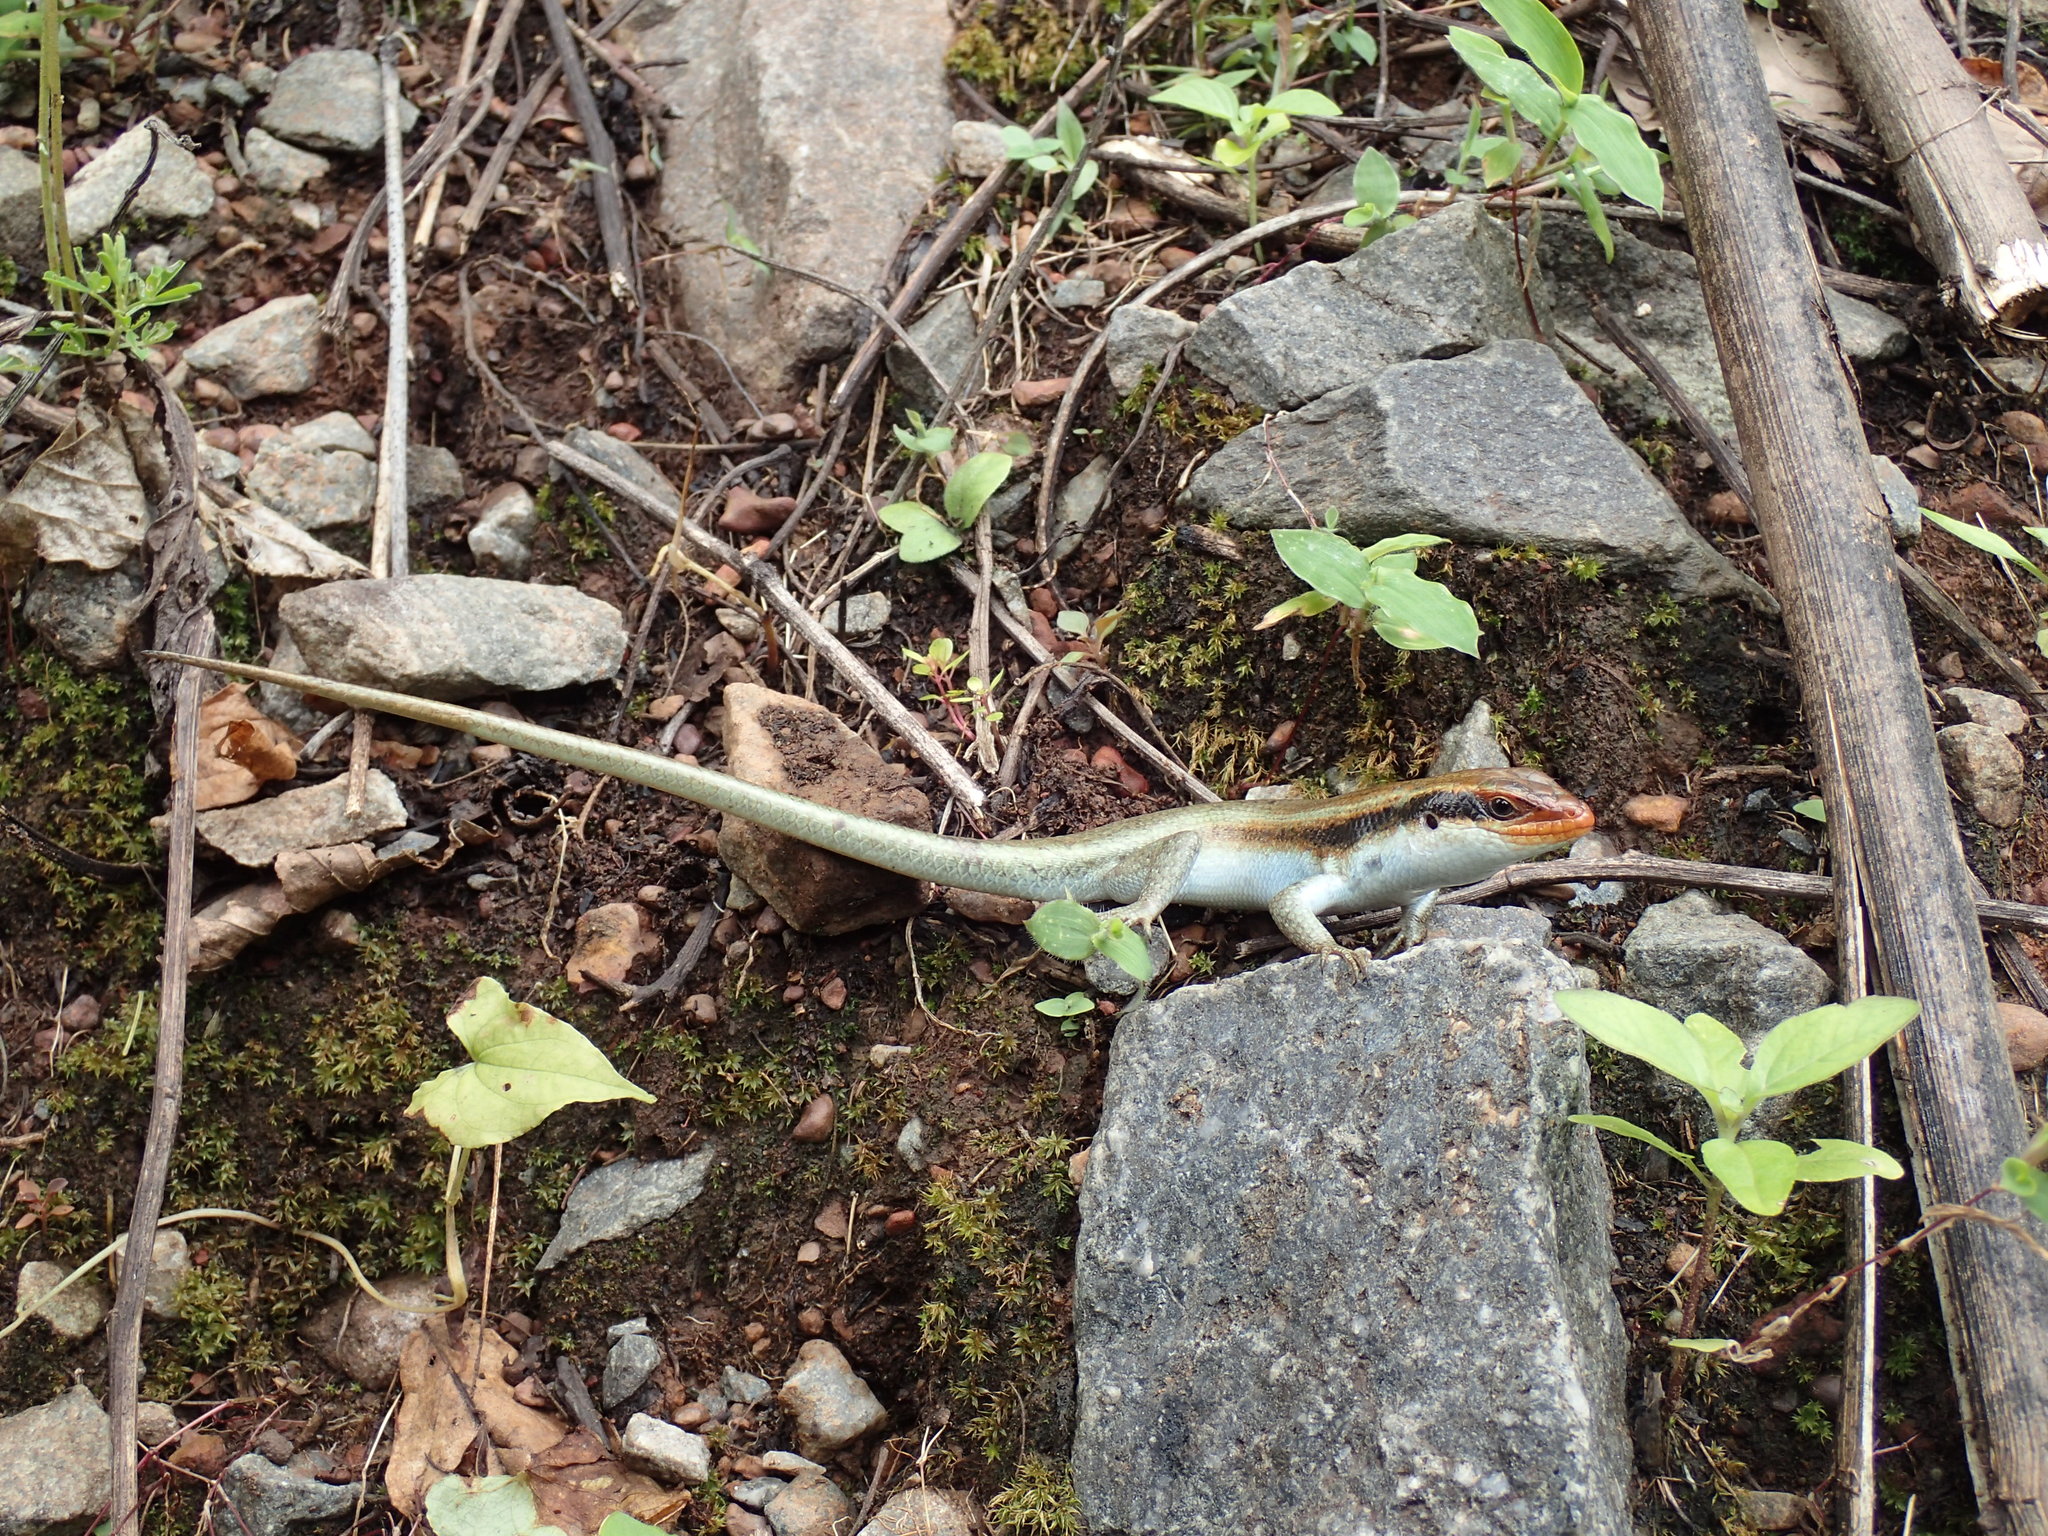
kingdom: Animalia
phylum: Chordata
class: Squamata
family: Scincidae
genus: Trachylepis
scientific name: Trachylepis wahlbergii
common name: Wahlberg’s striped skink
